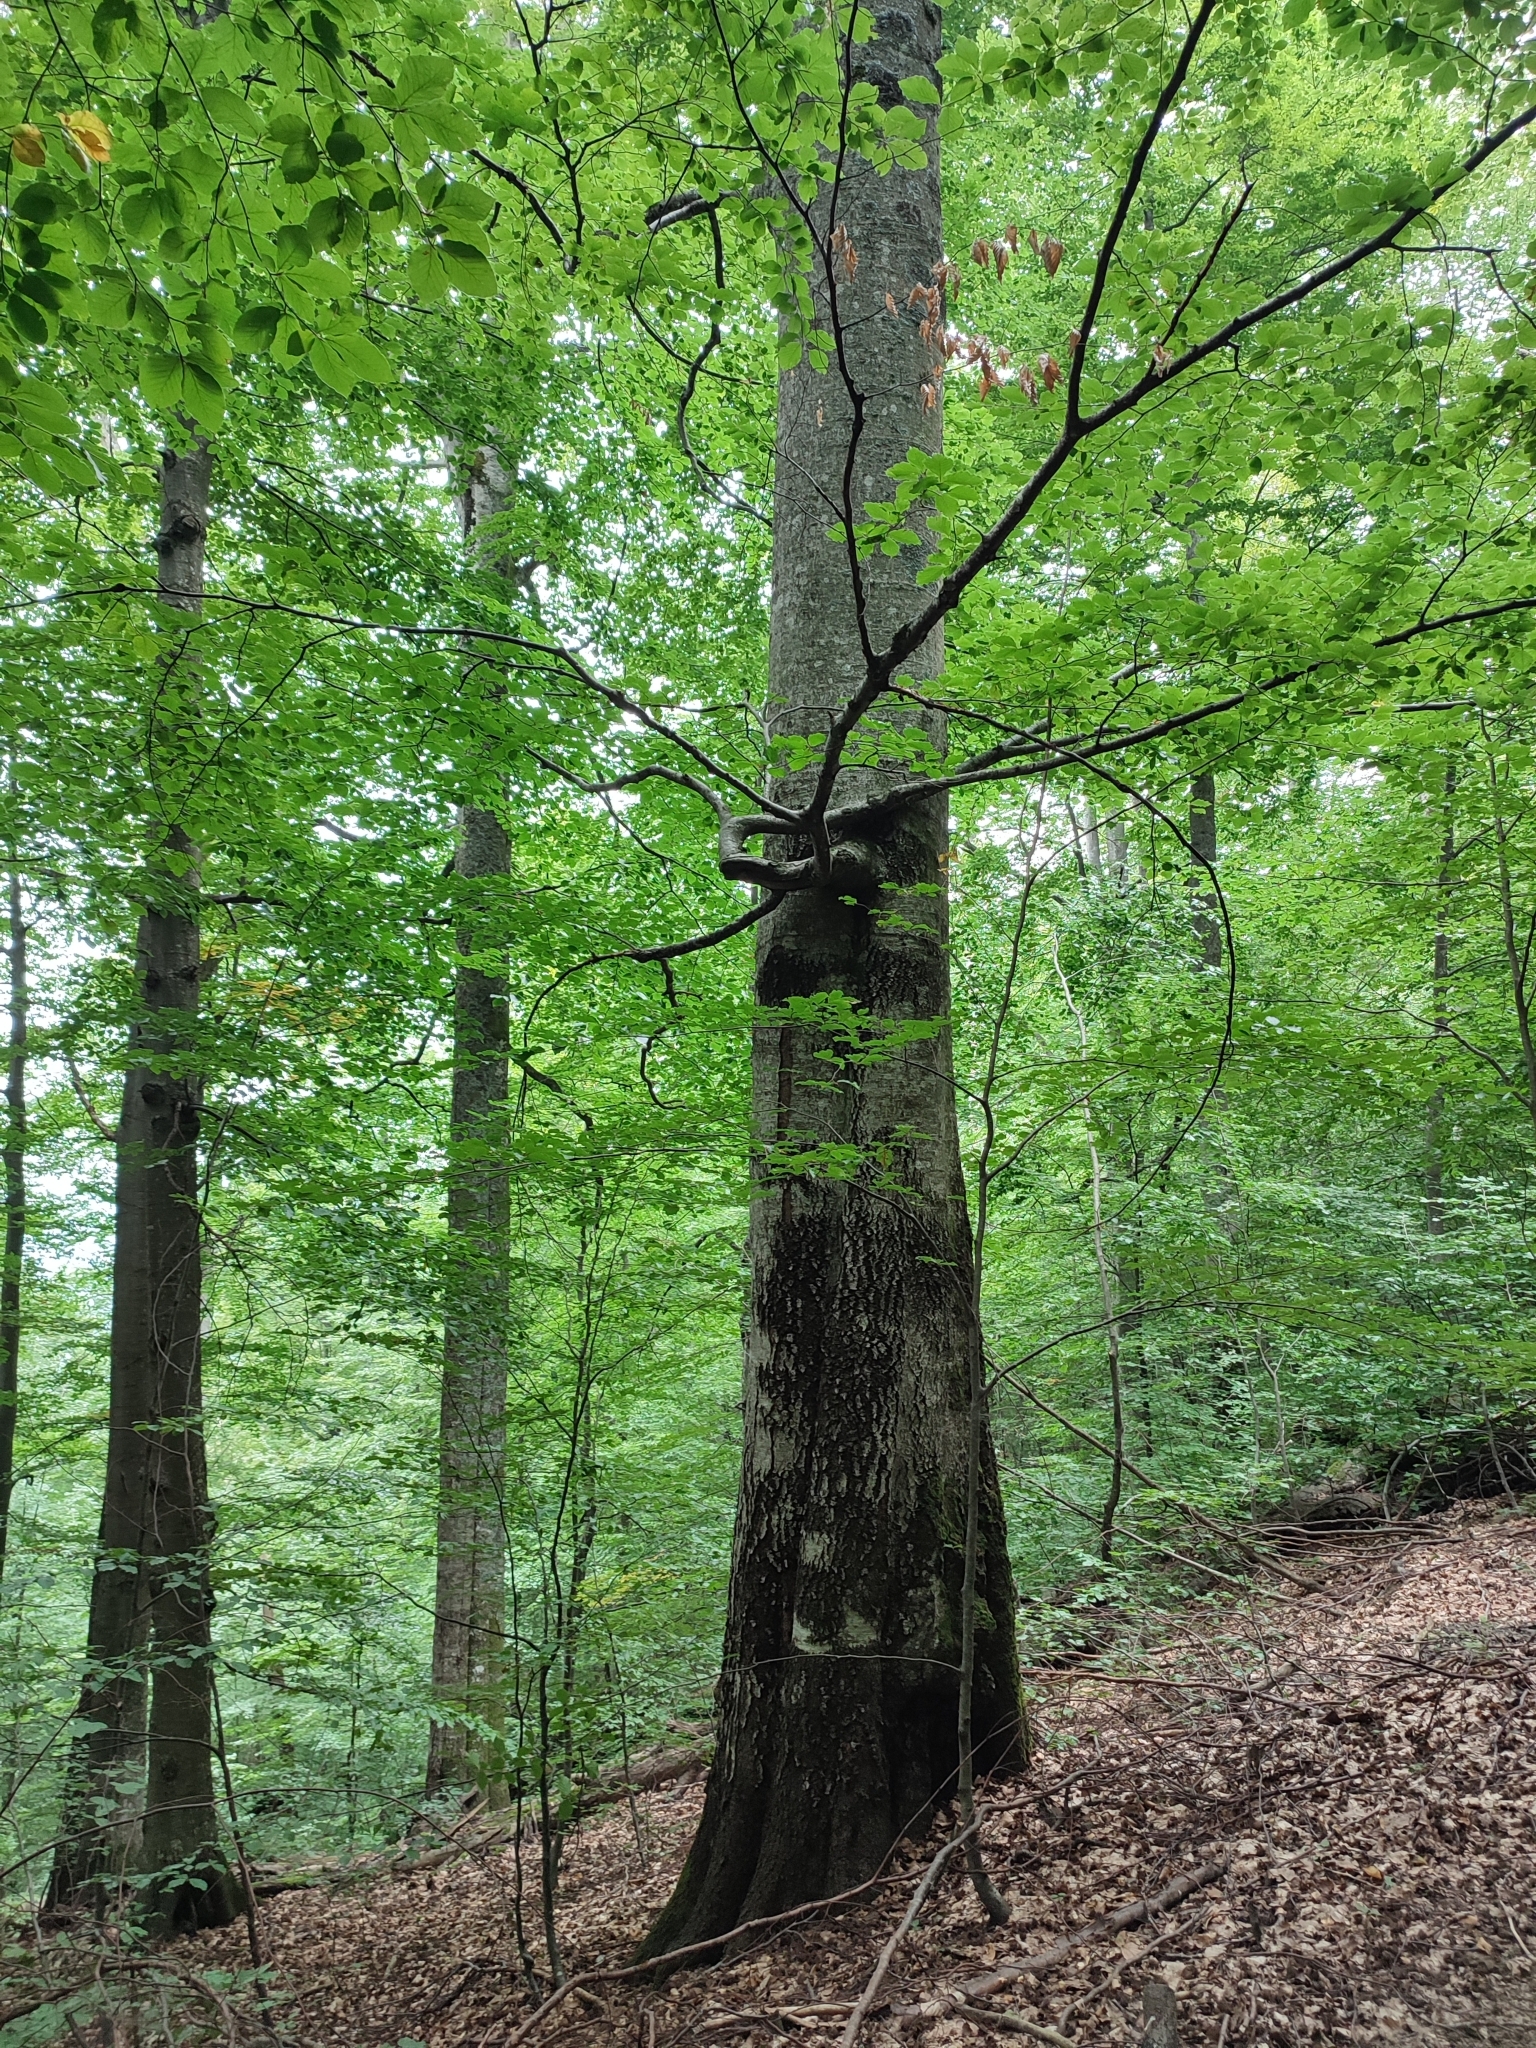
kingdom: Plantae
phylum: Tracheophyta
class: Magnoliopsida
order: Fagales
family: Fagaceae
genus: Fagus
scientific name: Fagus sylvatica
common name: Beech
